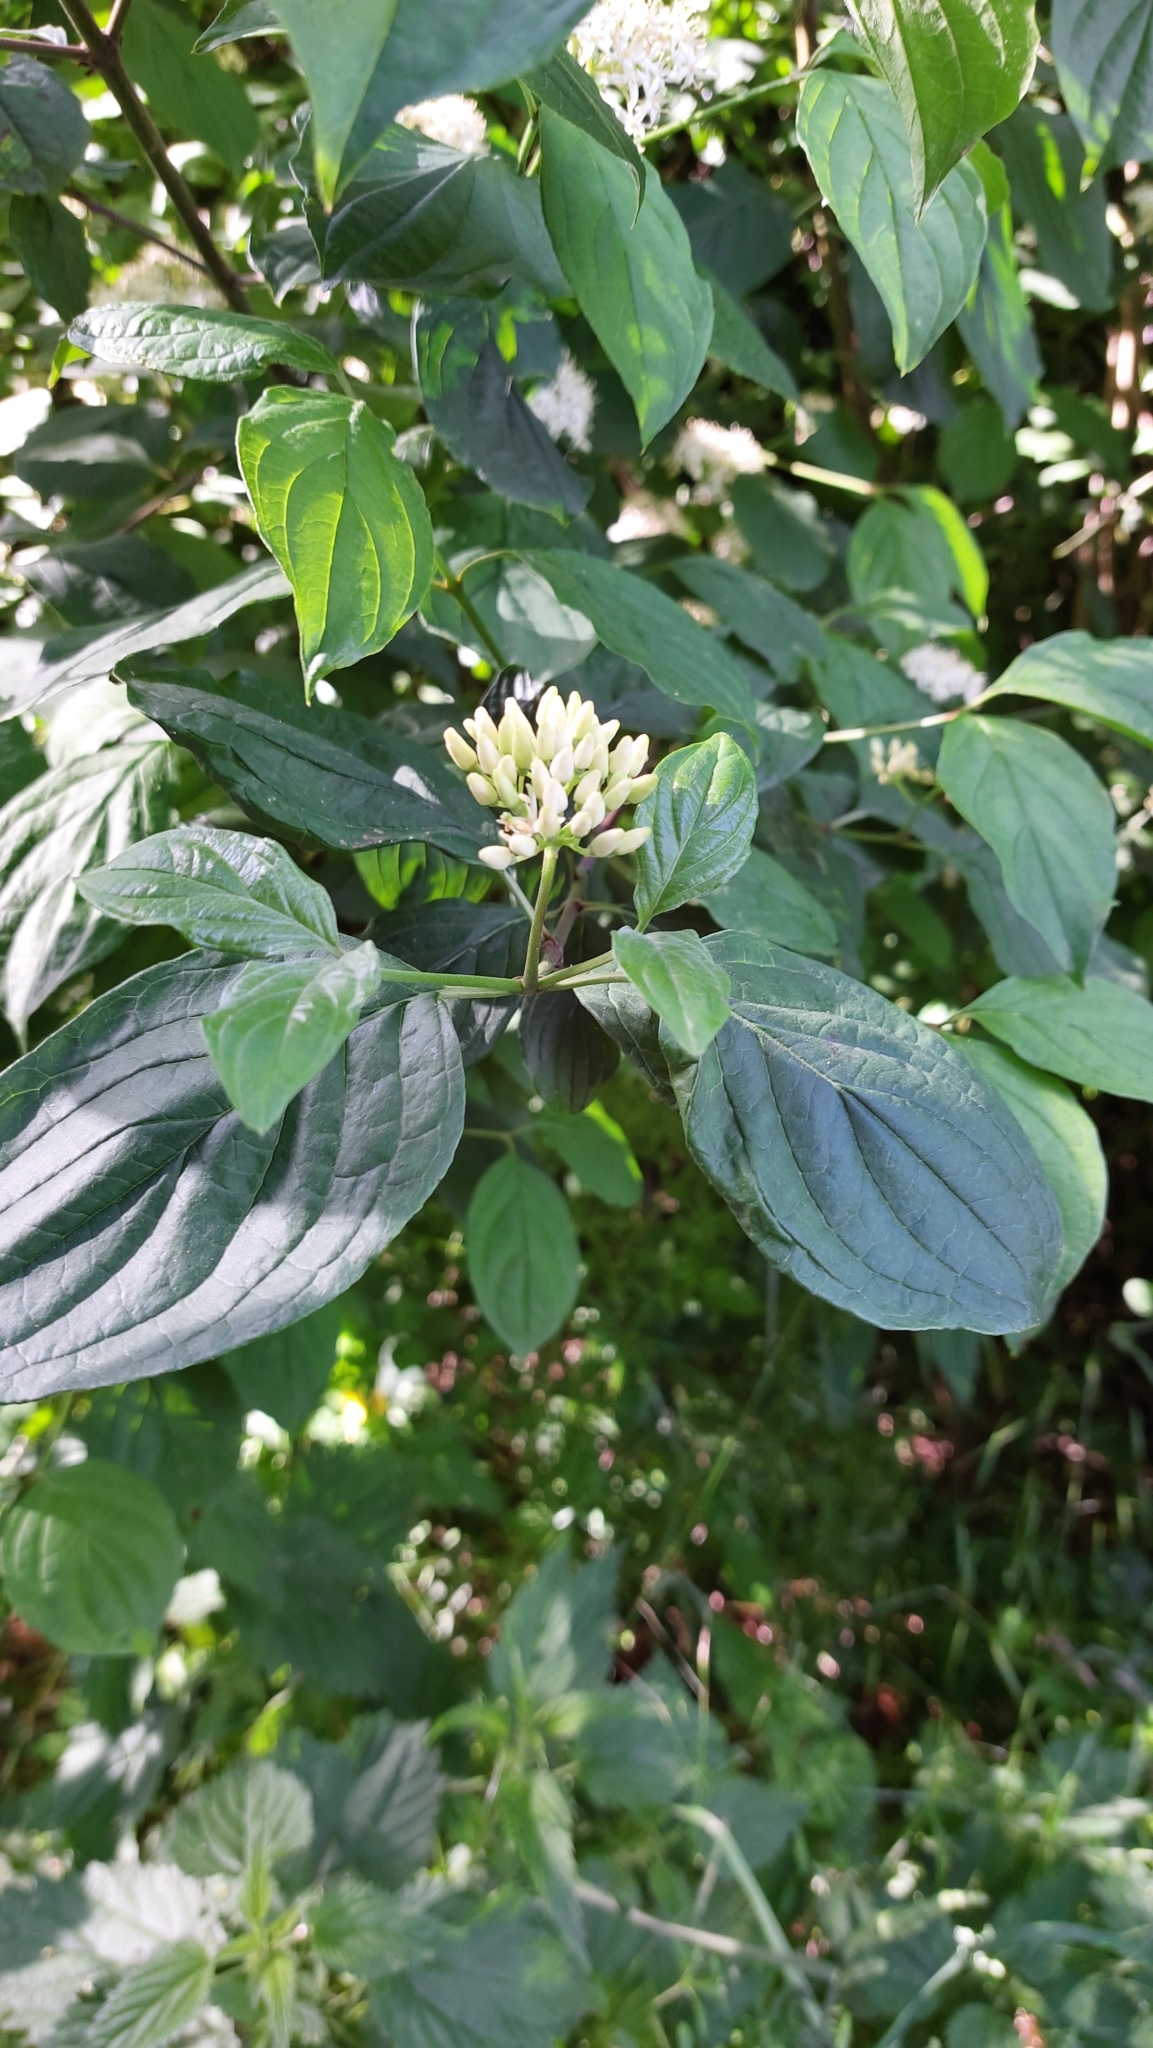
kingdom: Plantae
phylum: Tracheophyta
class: Magnoliopsida
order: Cornales
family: Cornaceae
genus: Cornus
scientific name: Cornus sanguinea
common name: Dogwood
